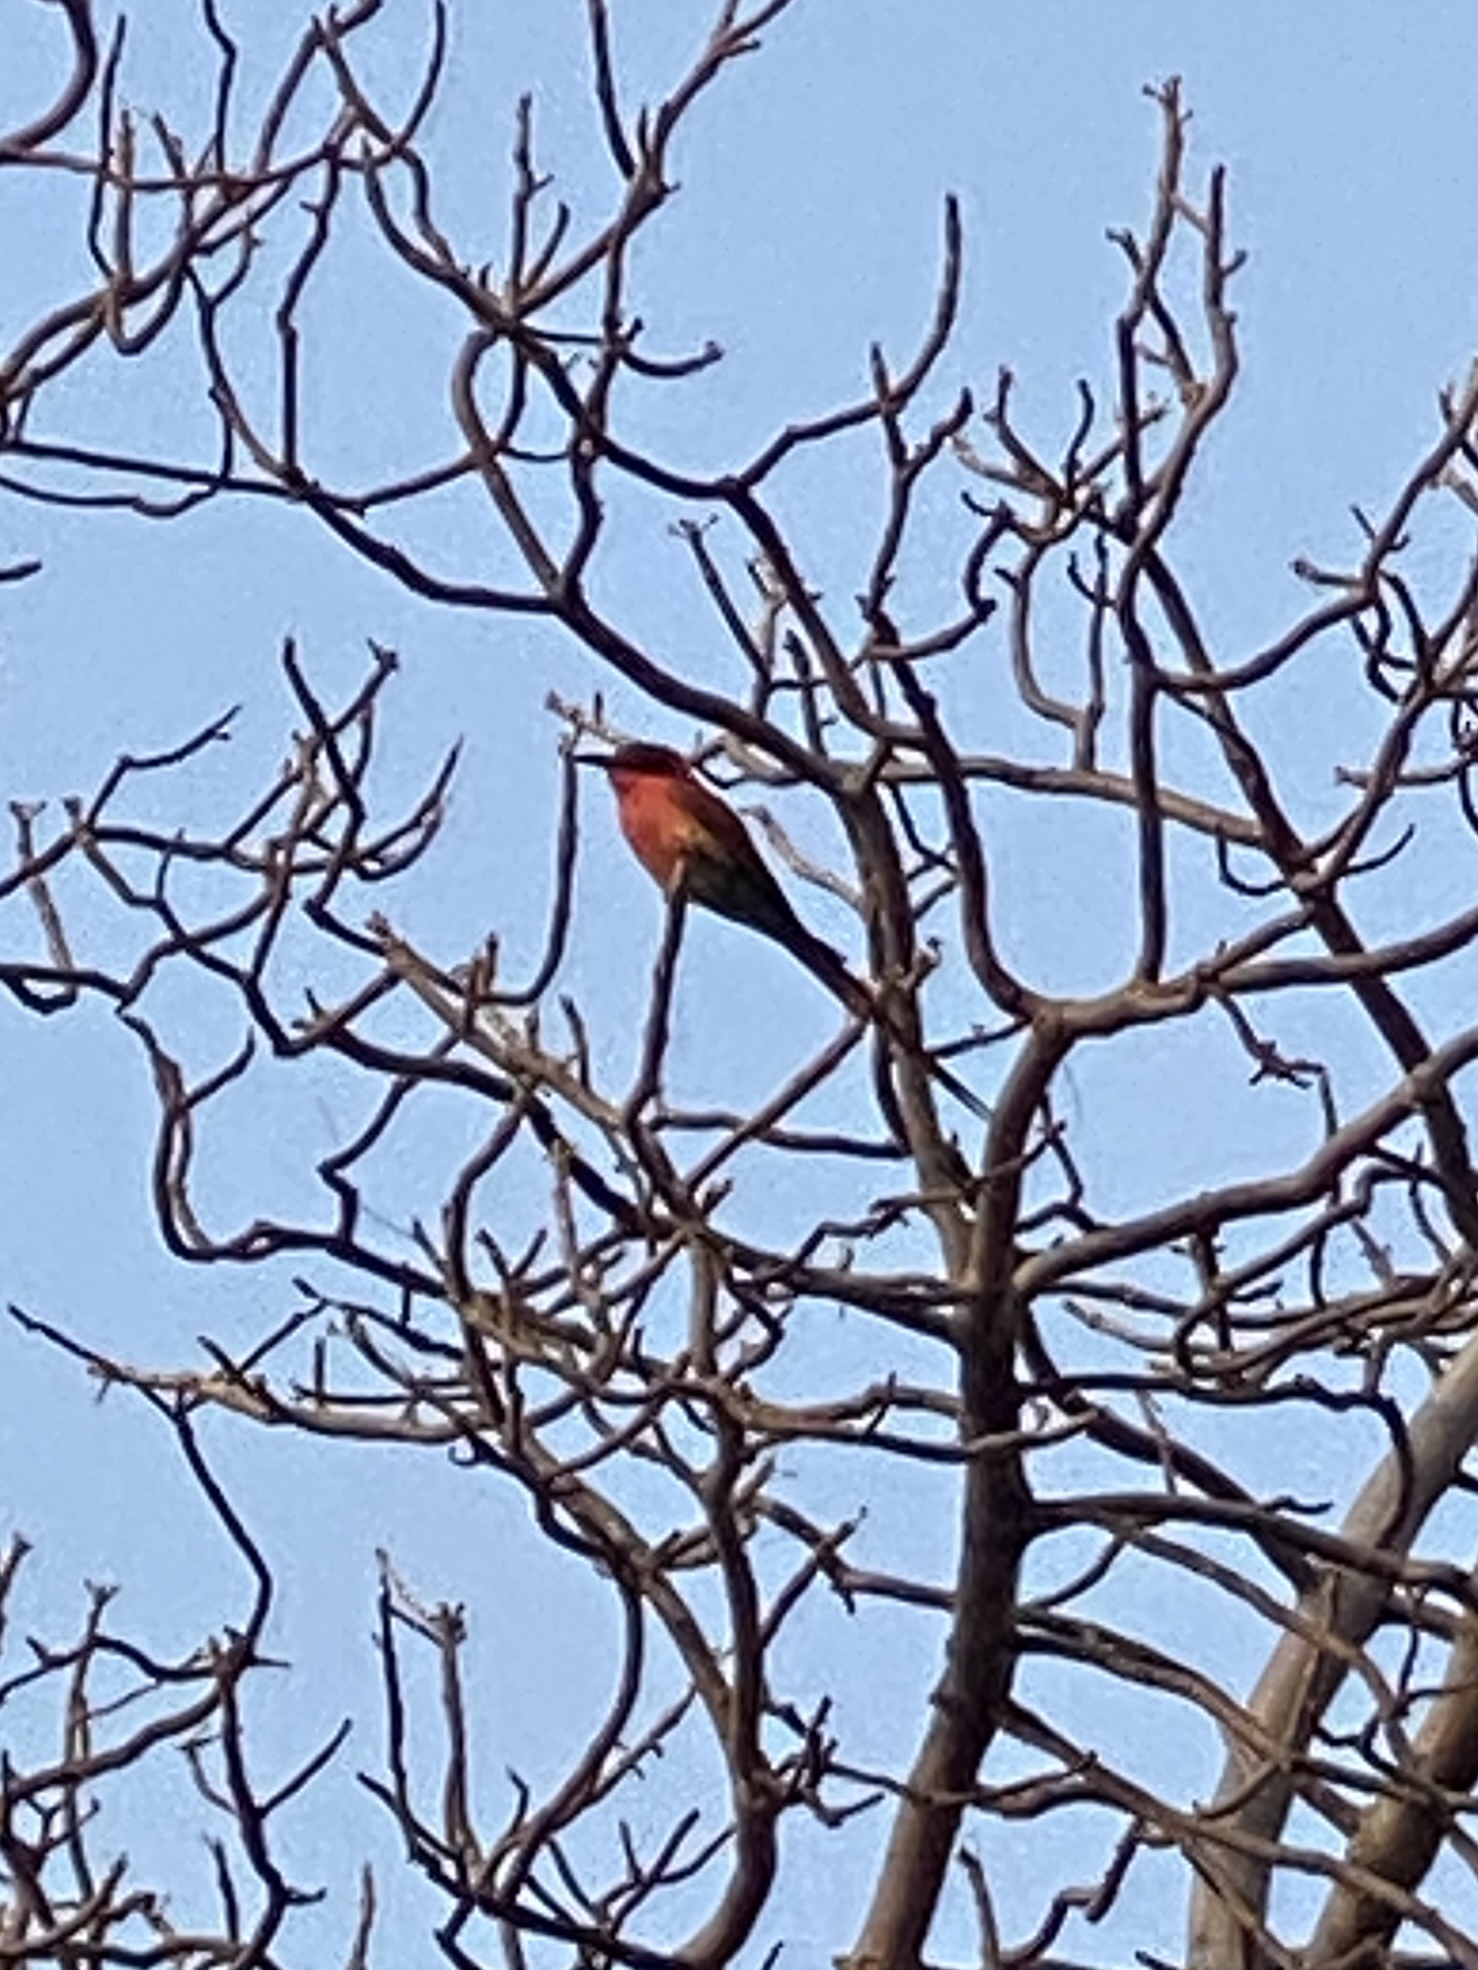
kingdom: Animalia
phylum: Chordata
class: Aves
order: Coraciiformes
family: Meropidae
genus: Merops
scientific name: Merops nubicoides
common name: Southern carmine bee-eater
